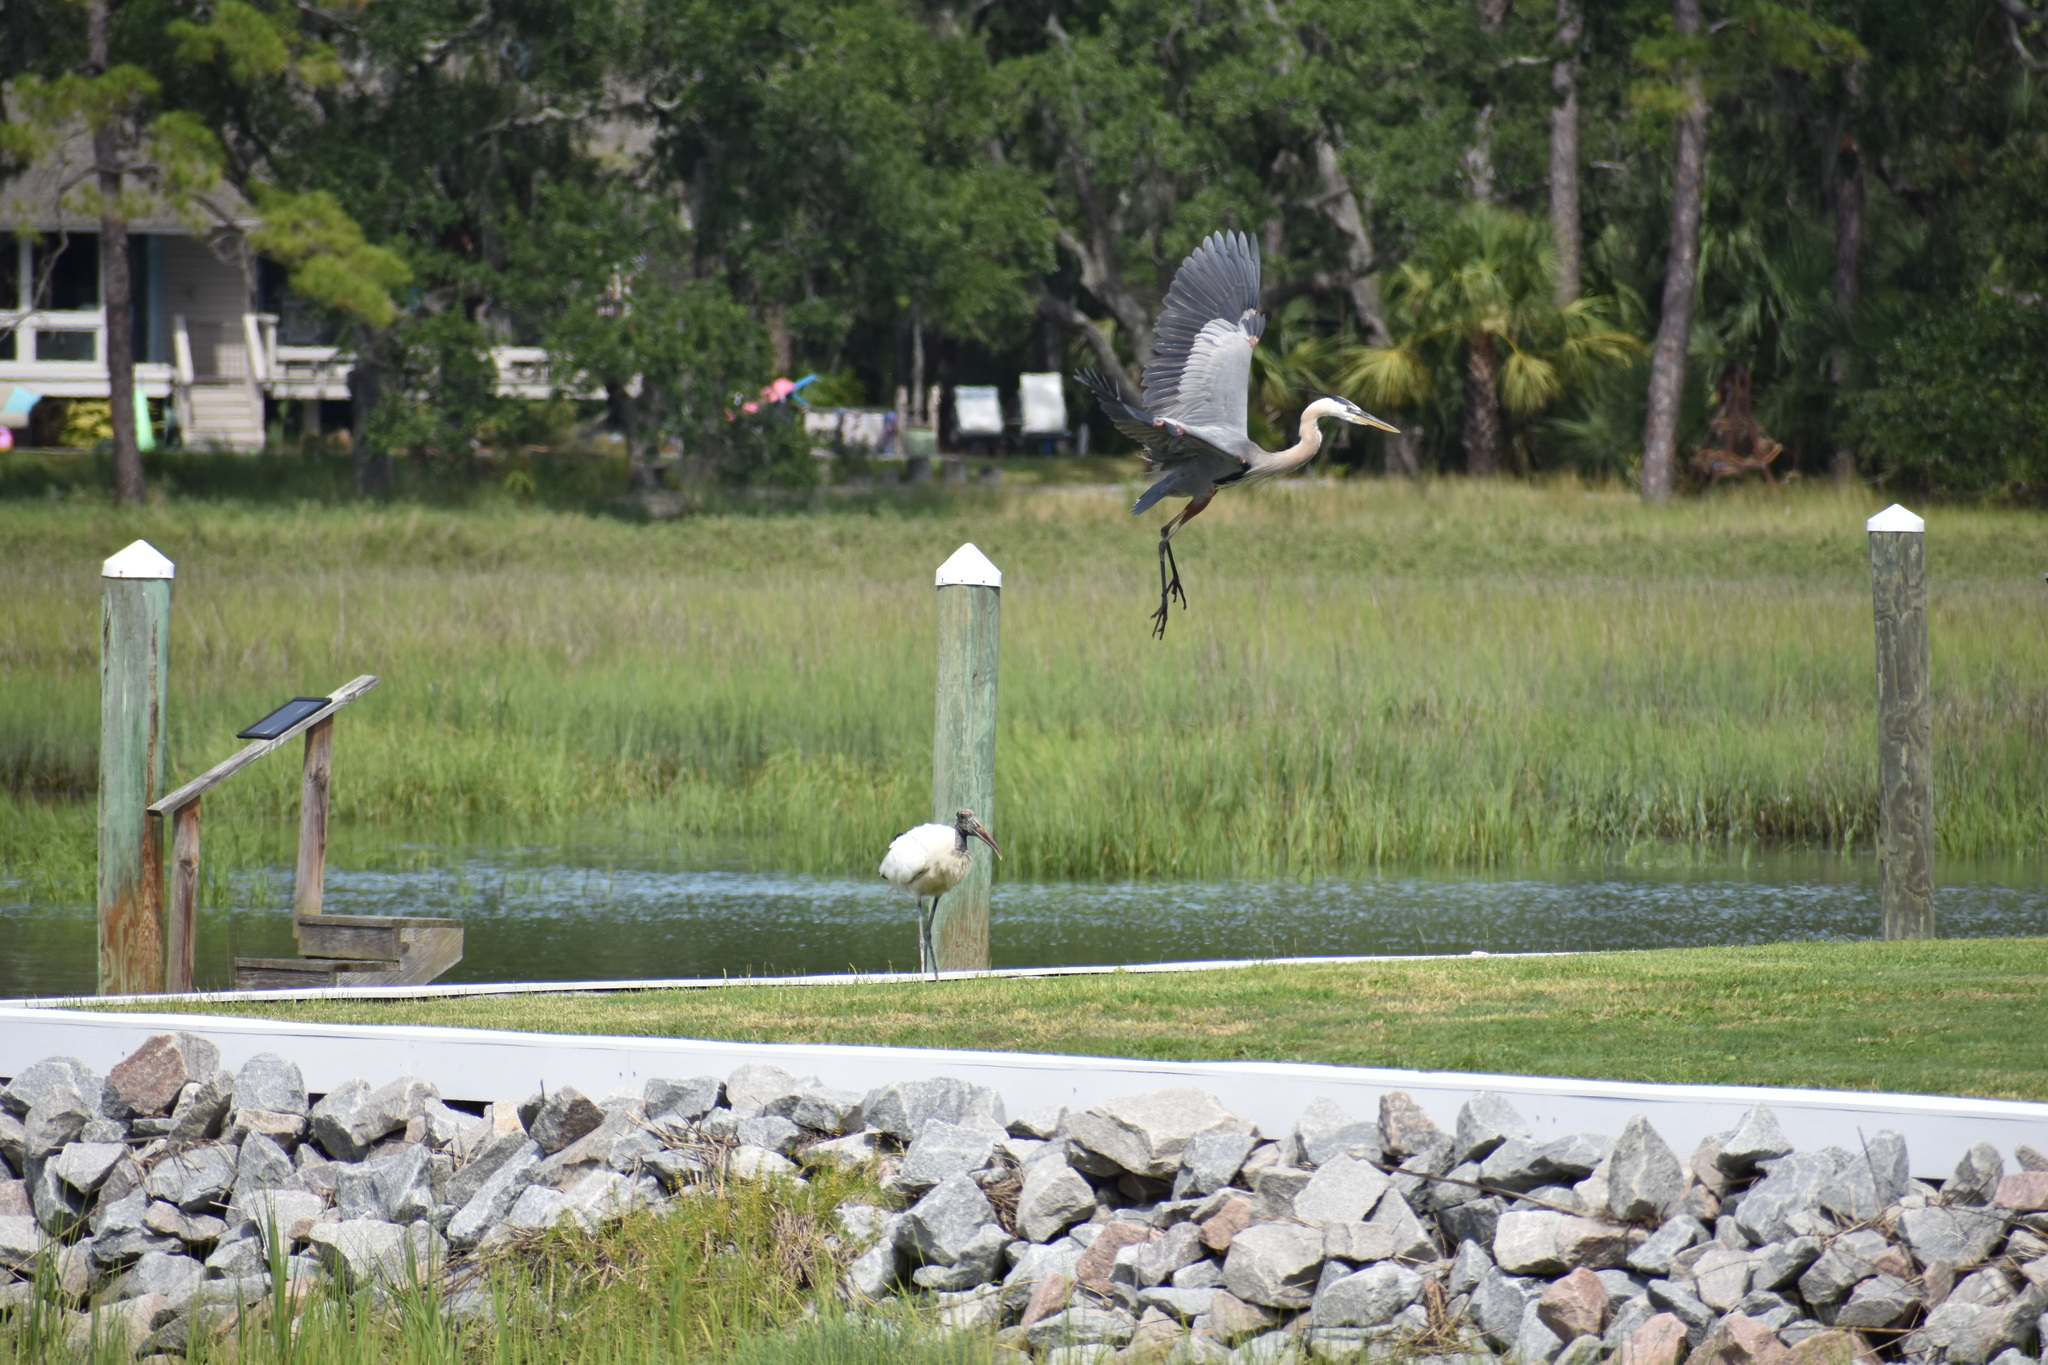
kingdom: Animalia
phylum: Chordata
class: Aves
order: Ciconiiformes
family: Ciconiidae
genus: Mycteria
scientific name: Mycteria americana
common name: Wood stork
